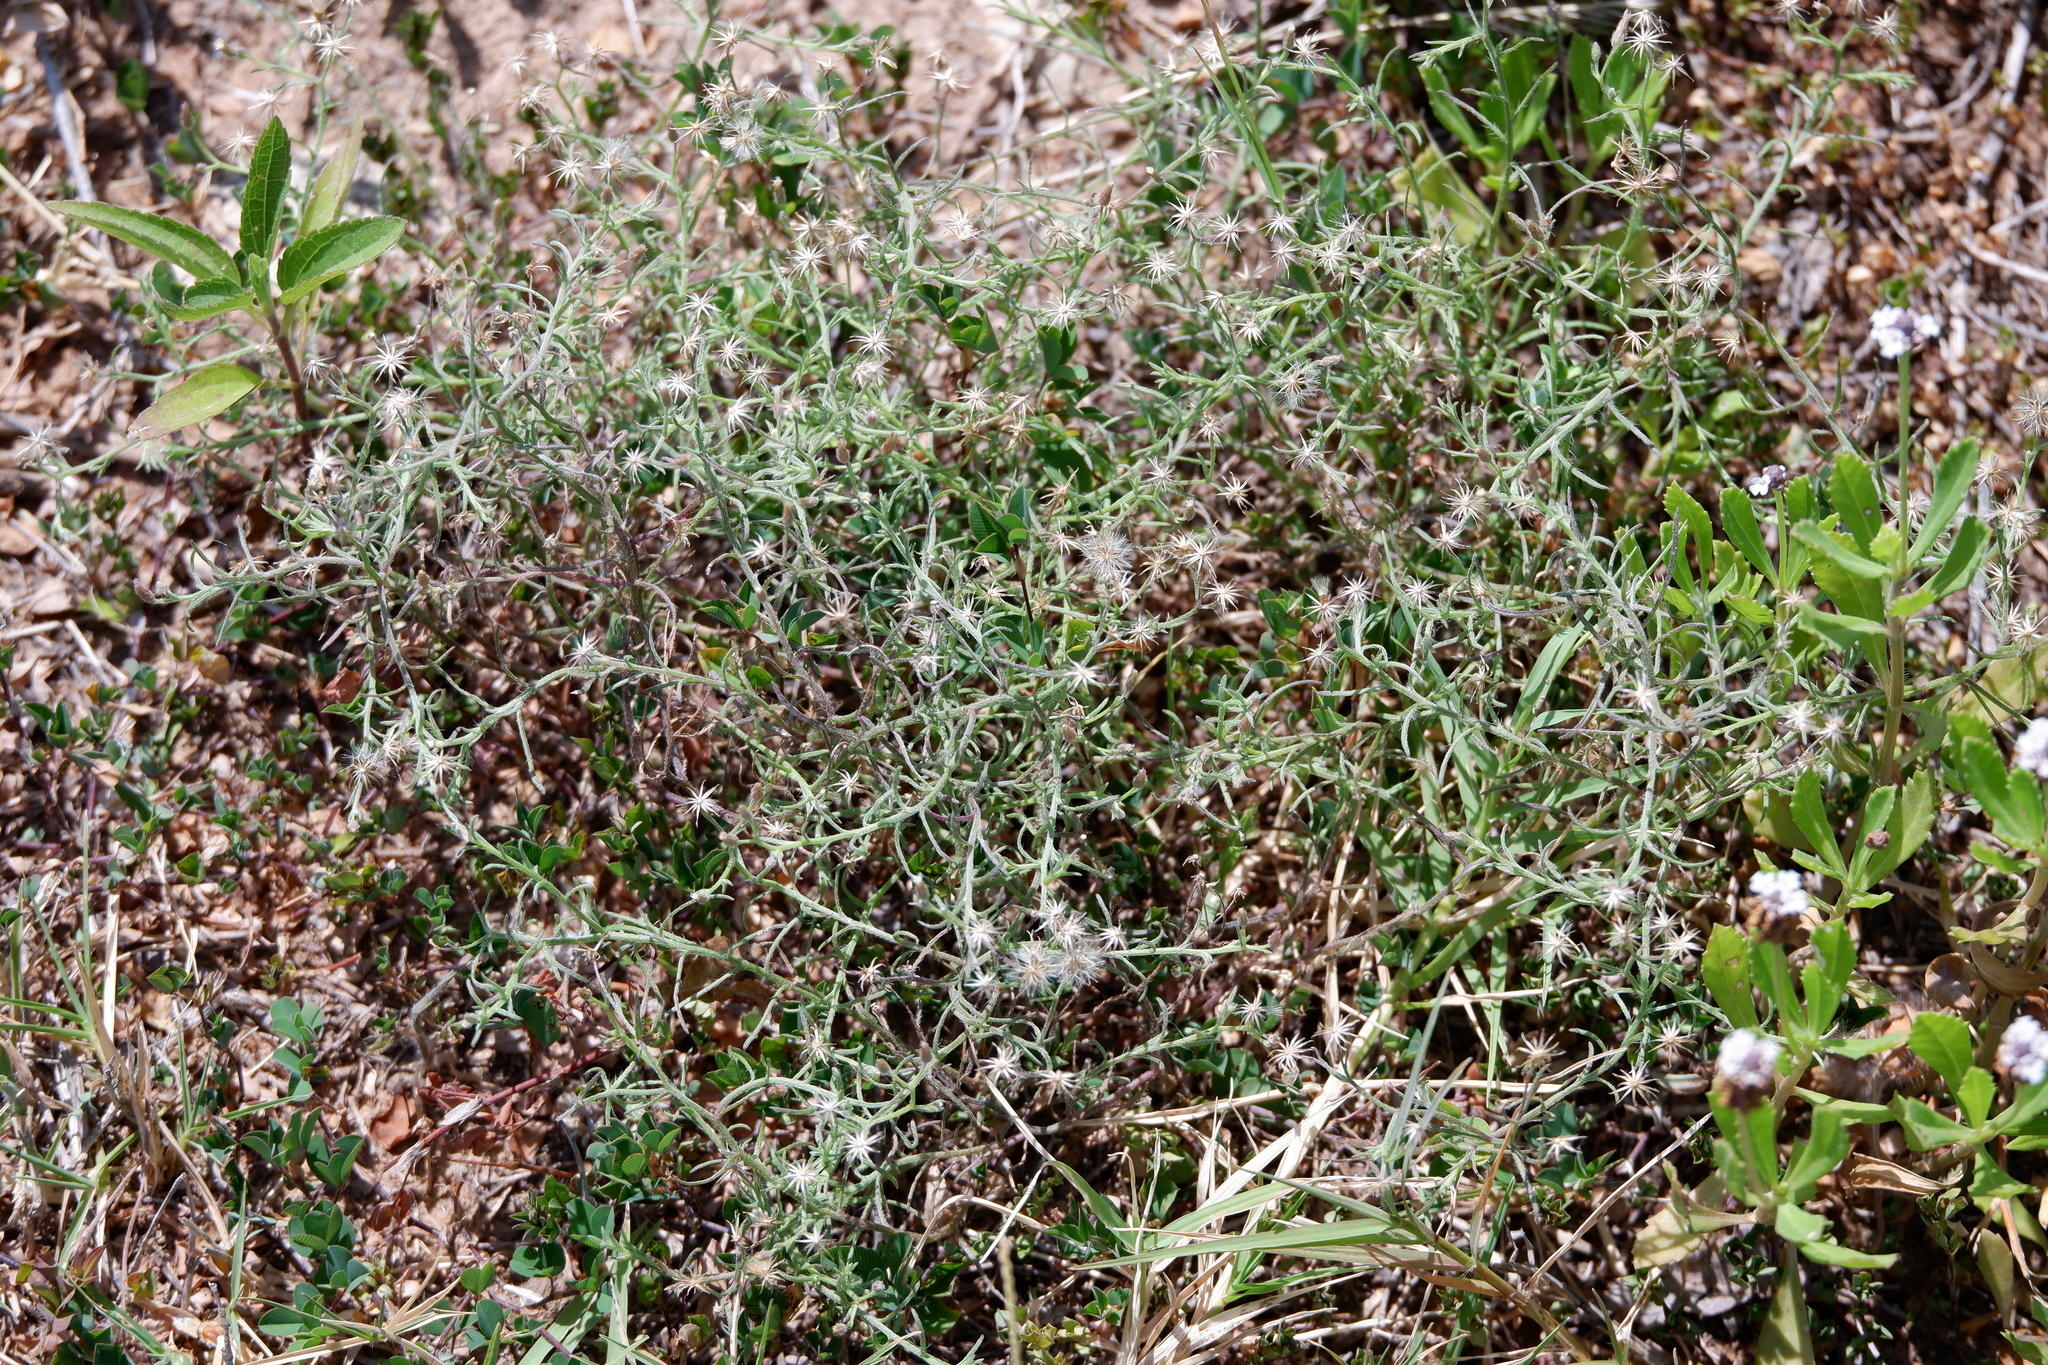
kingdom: Plantae
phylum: Tracheophyta
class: Magnoliopsida
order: Asterales
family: Asteraceae
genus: Erigeron
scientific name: Erigeron divaricatus
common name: Dwarf conyza
